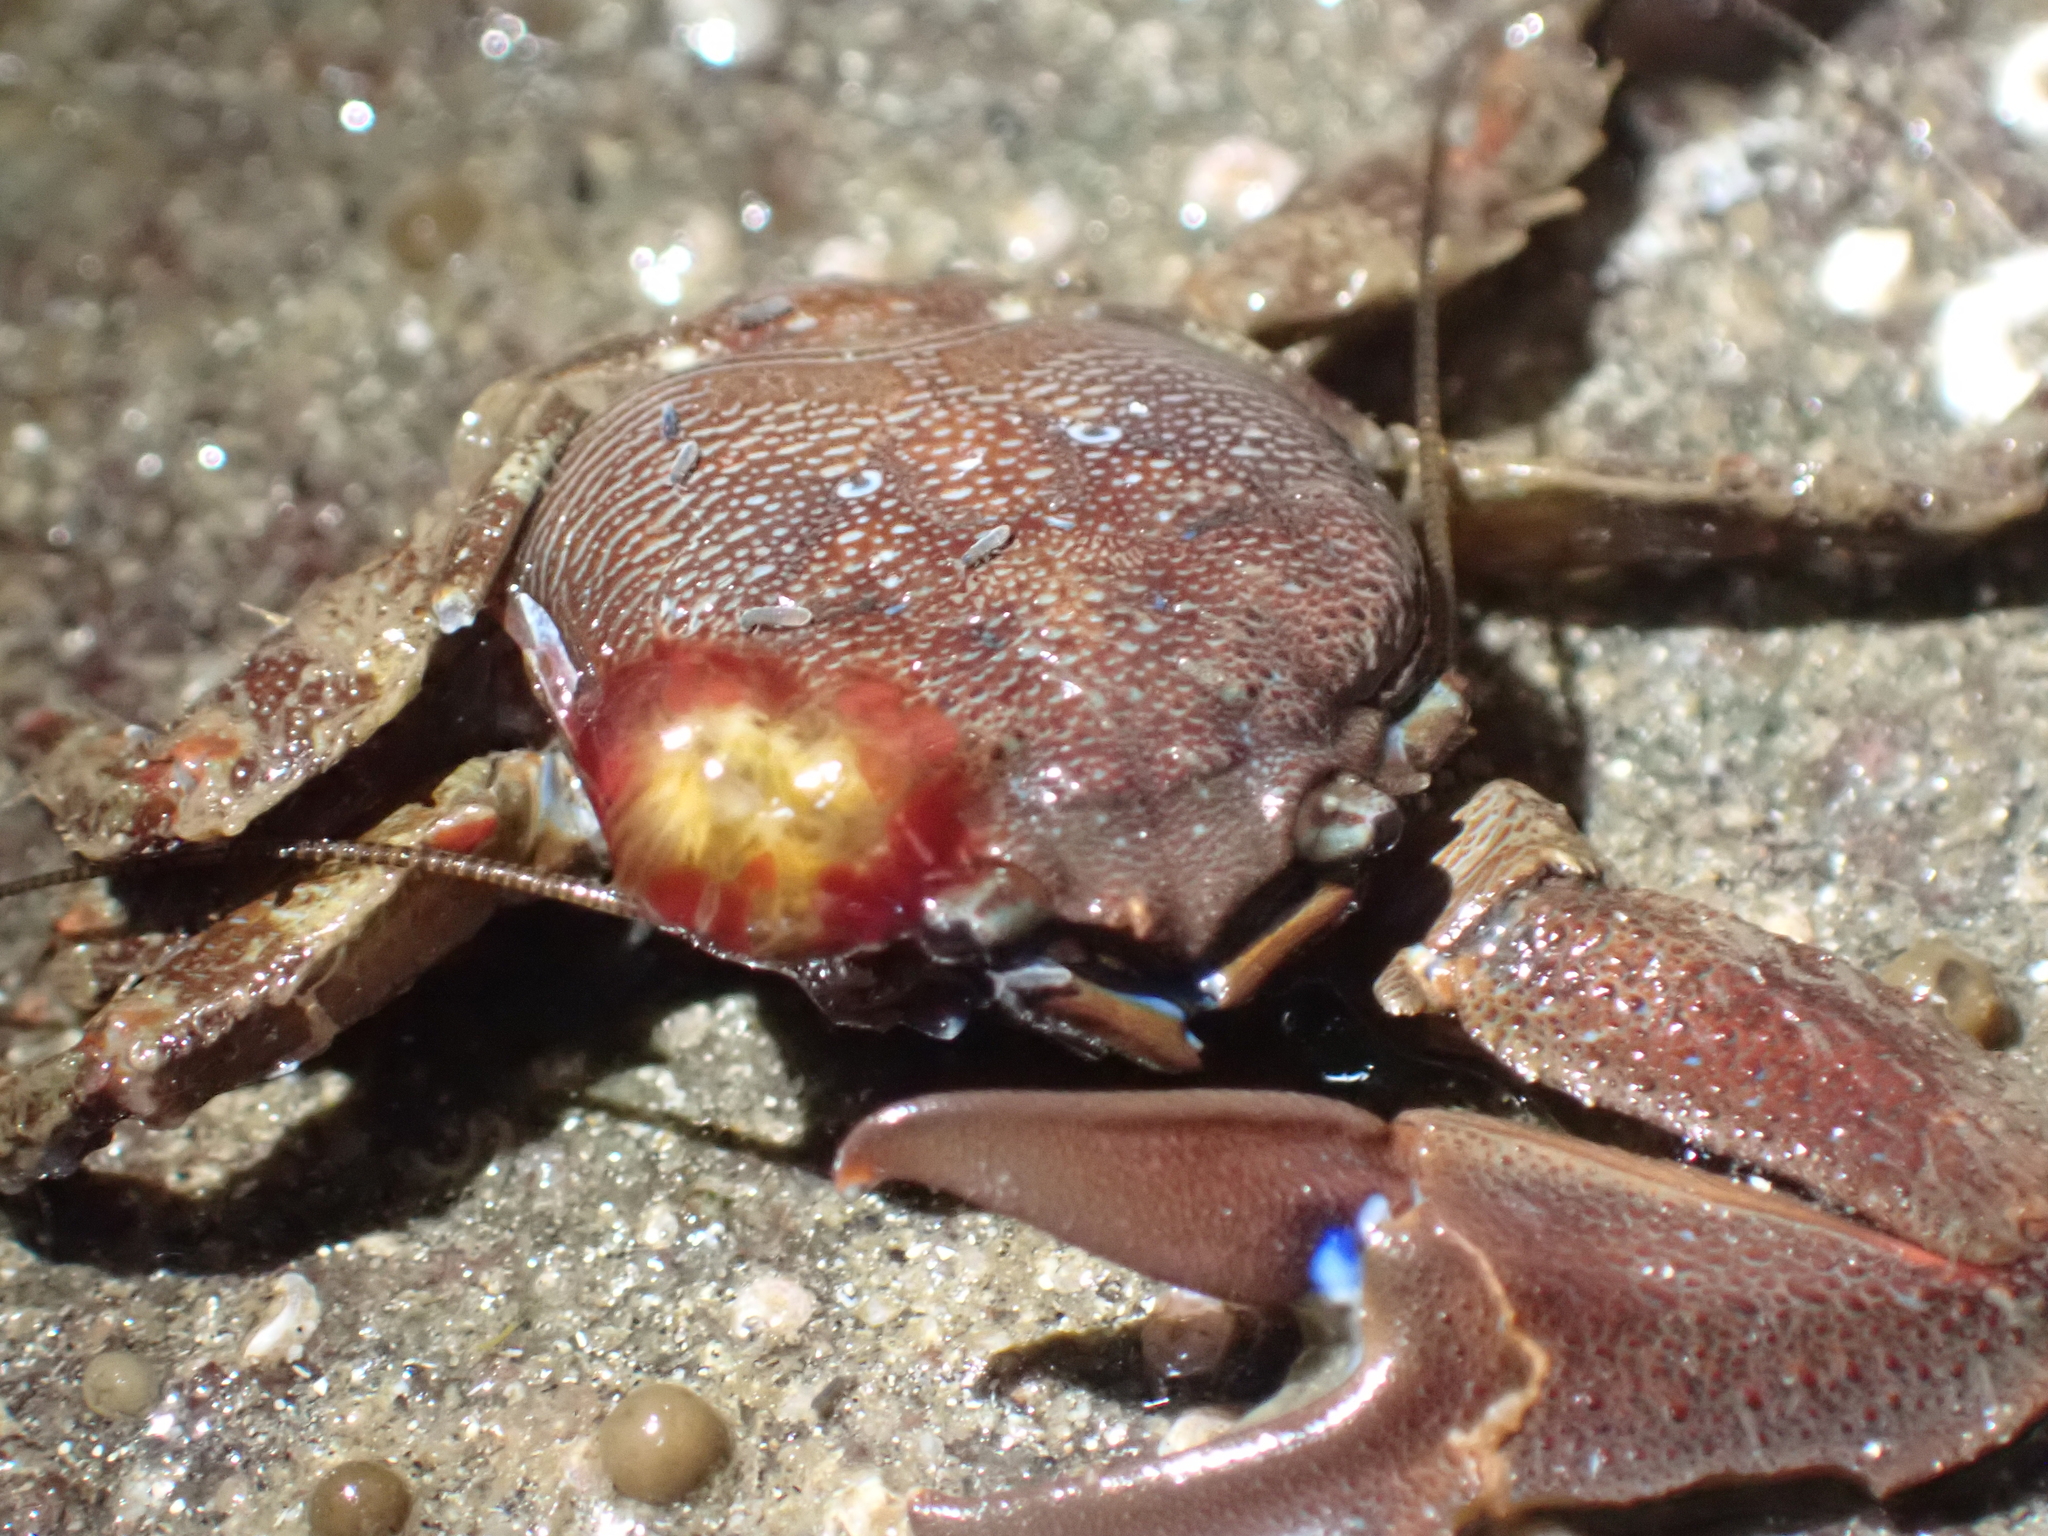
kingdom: Animalia
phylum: Arthropoda
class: Malacostraca
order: Decapoda
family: Porcellanidae
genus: Petrolisthes
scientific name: Petrolisthes eriomerus
